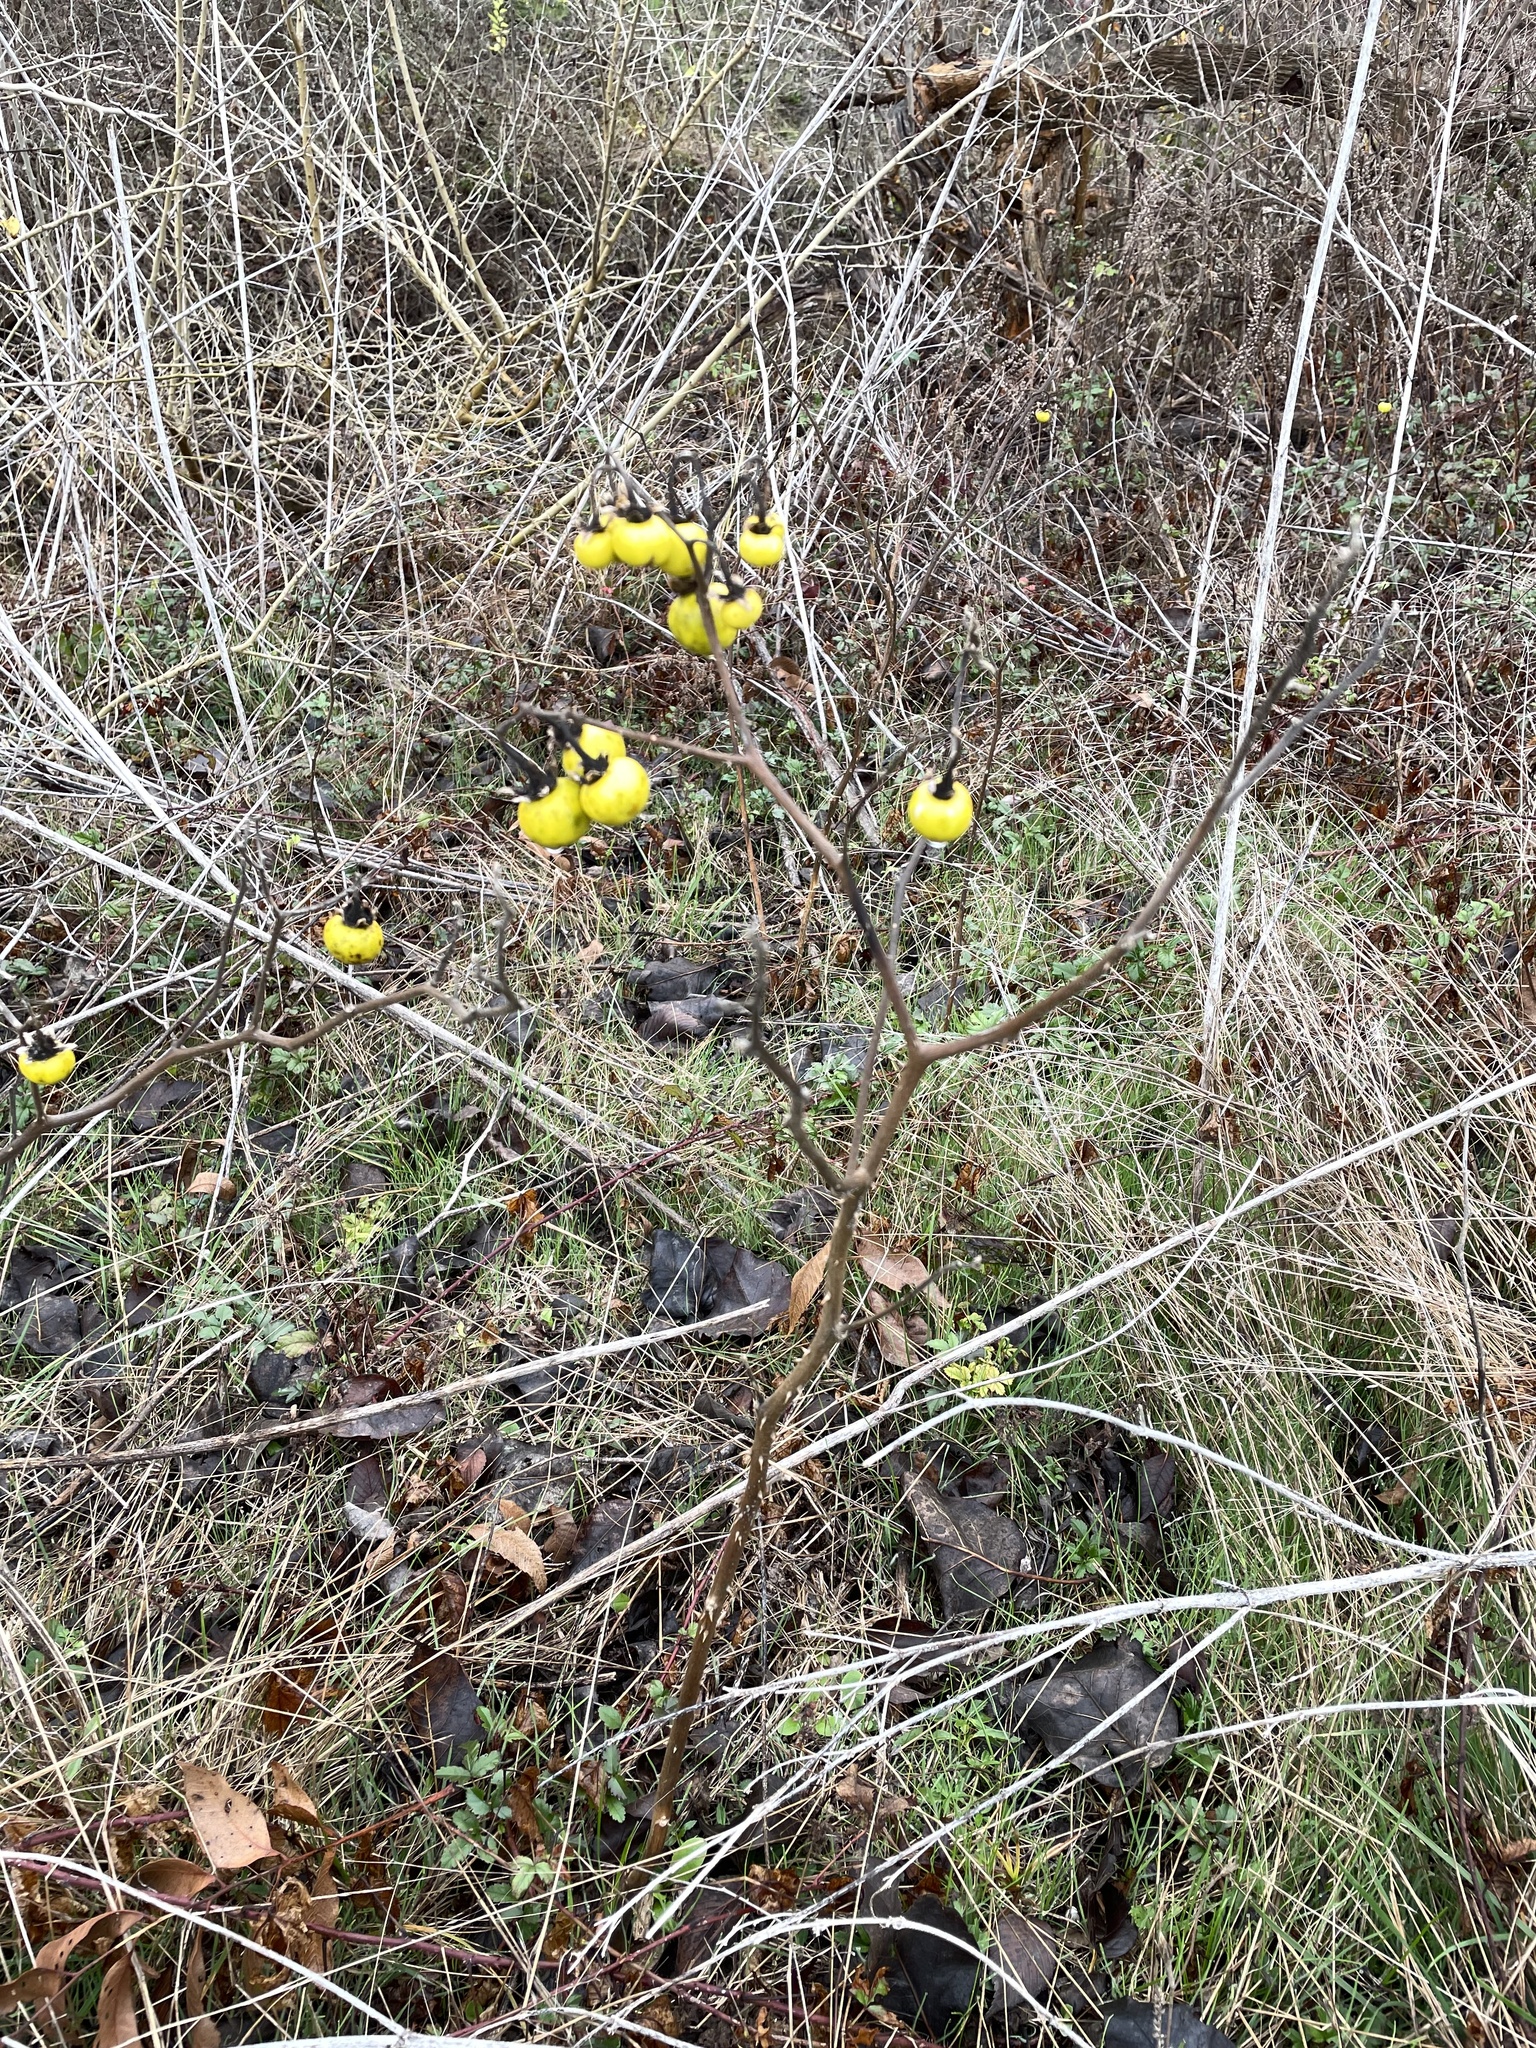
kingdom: Plantae
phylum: Tracheophyta
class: Magnoliopsida
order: Solanales
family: Solanaceae
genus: Solanum
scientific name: Solanum dimidiatum
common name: Carolina horse-nettle
